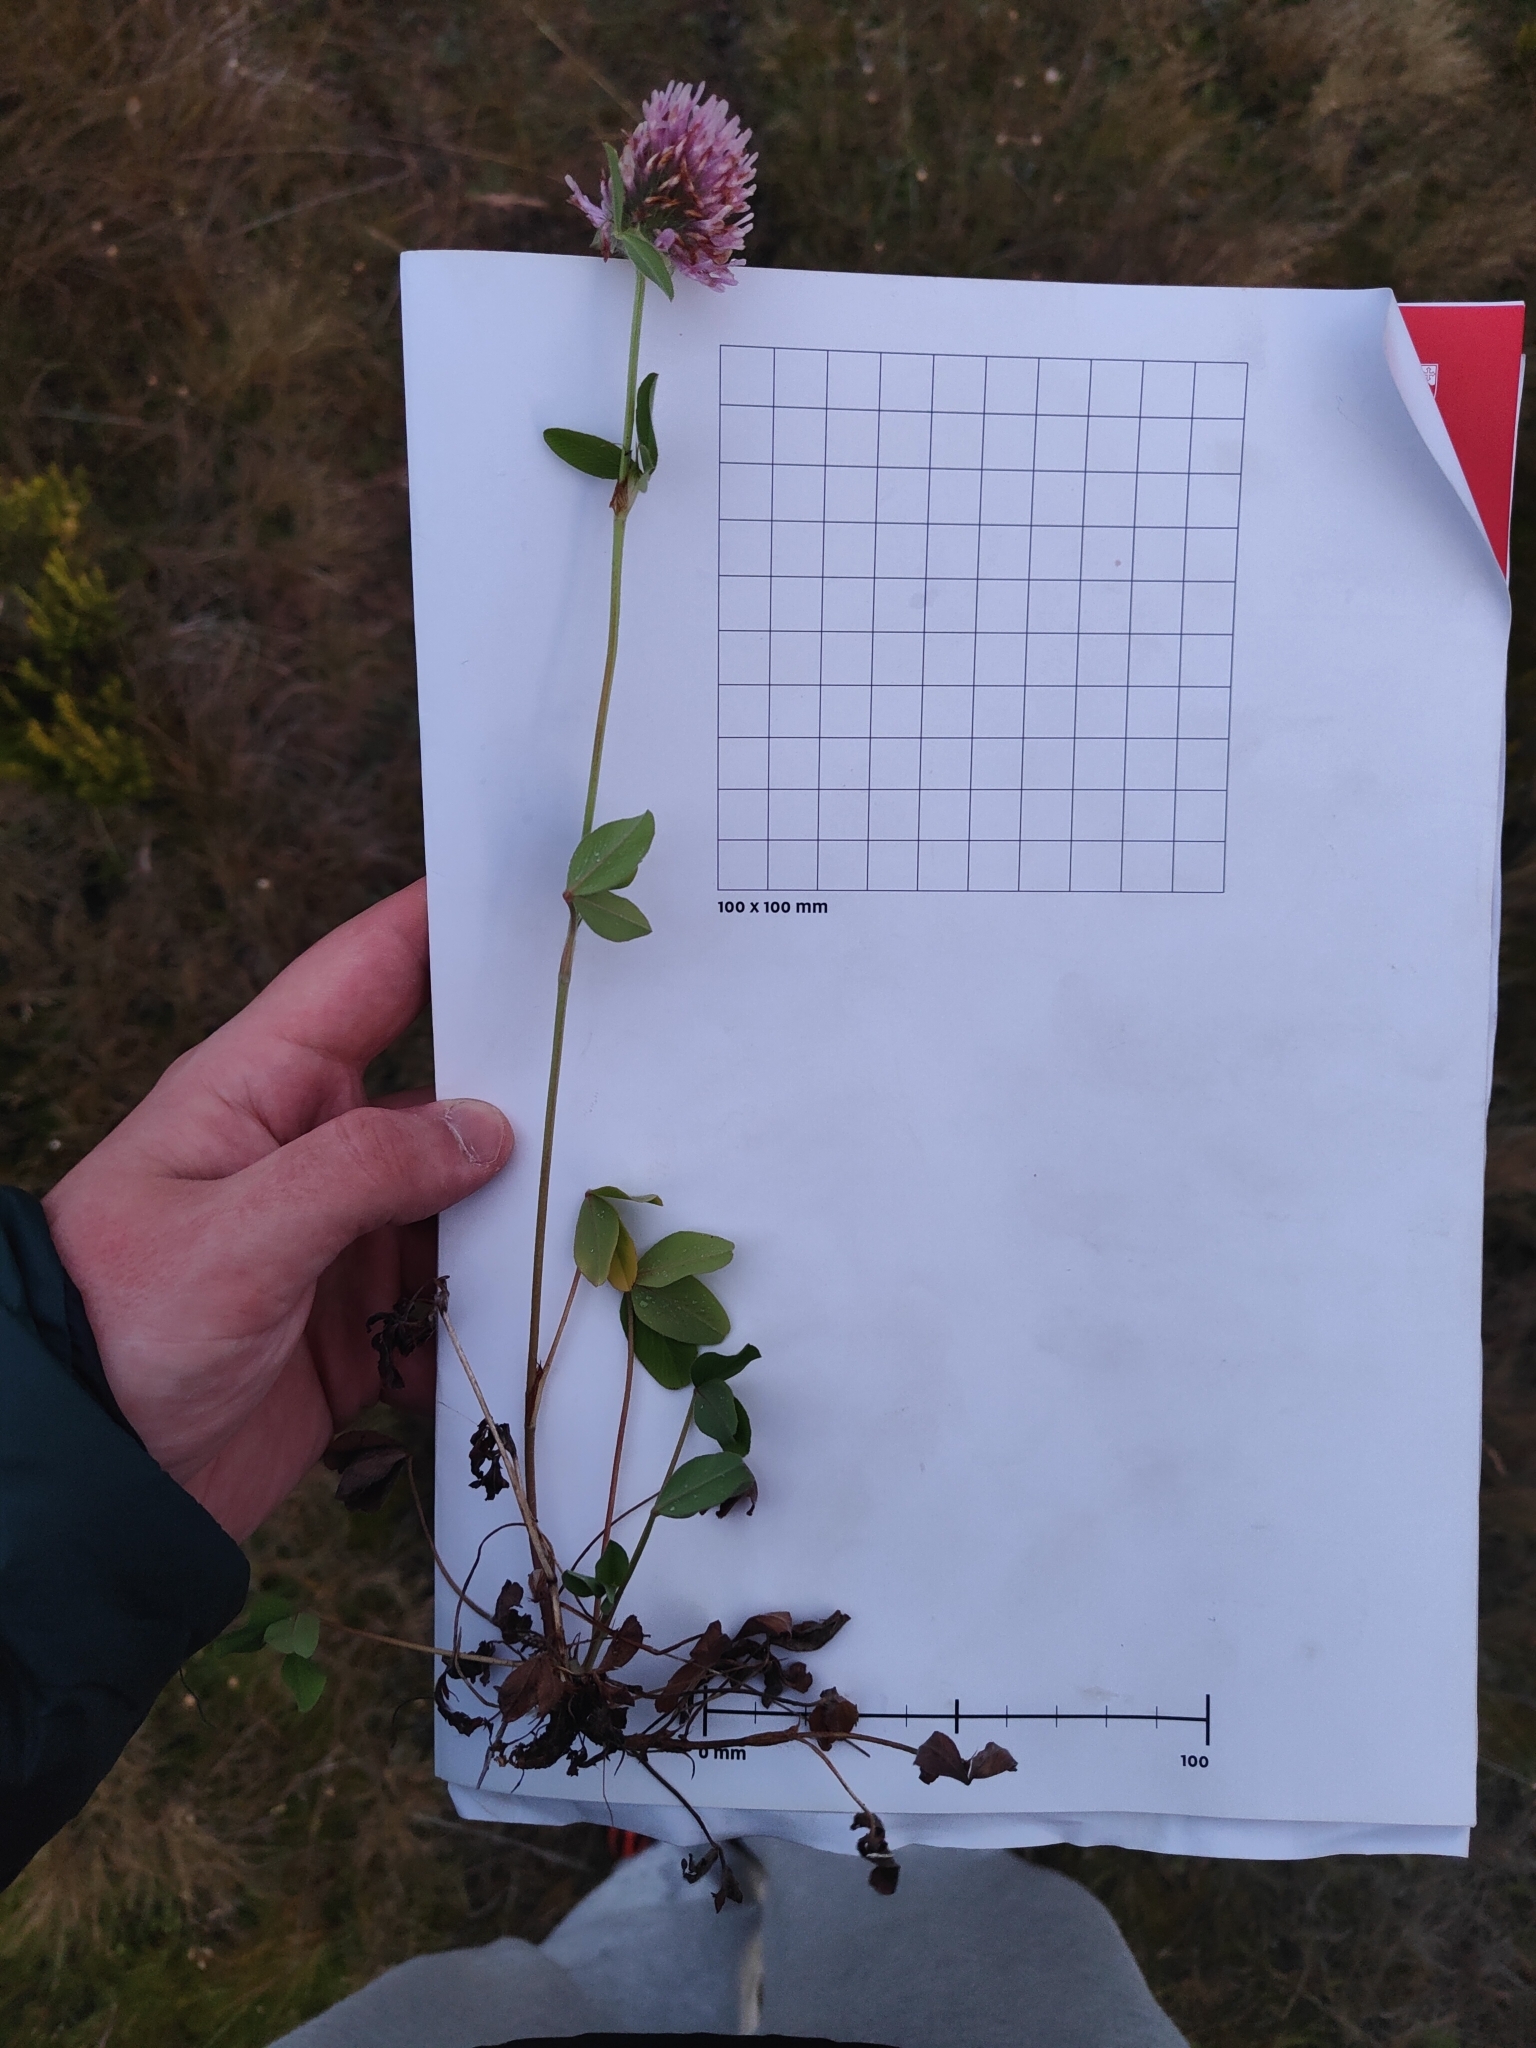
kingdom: Plantae
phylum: Tracheophyta
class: Magnoliopsida
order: Fabales
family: Fabaceae
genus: Trifolium
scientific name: Trifolium pratense
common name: Red clover
